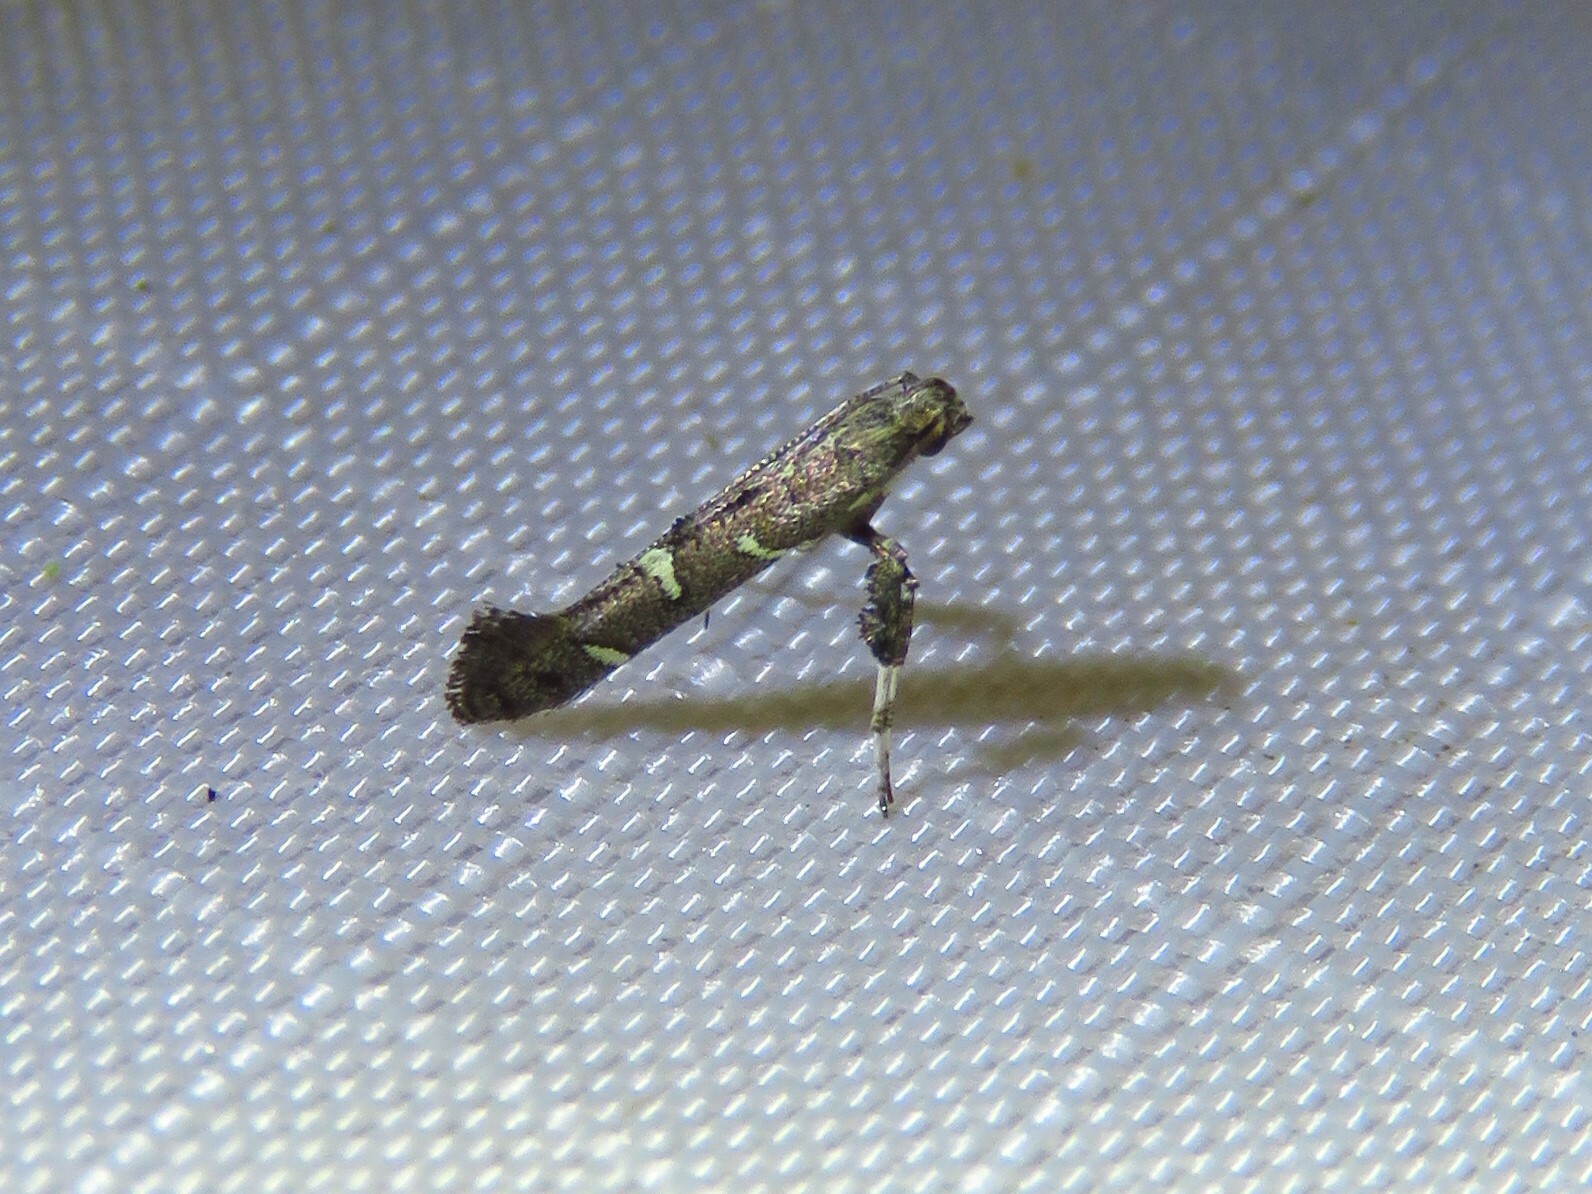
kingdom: Animalia
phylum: Arthropoda
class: Insecta
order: Lepidoptera
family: Gracillariidae
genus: Caloptilia
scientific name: Caloptilia triadicae
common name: Tallow leaf roller
